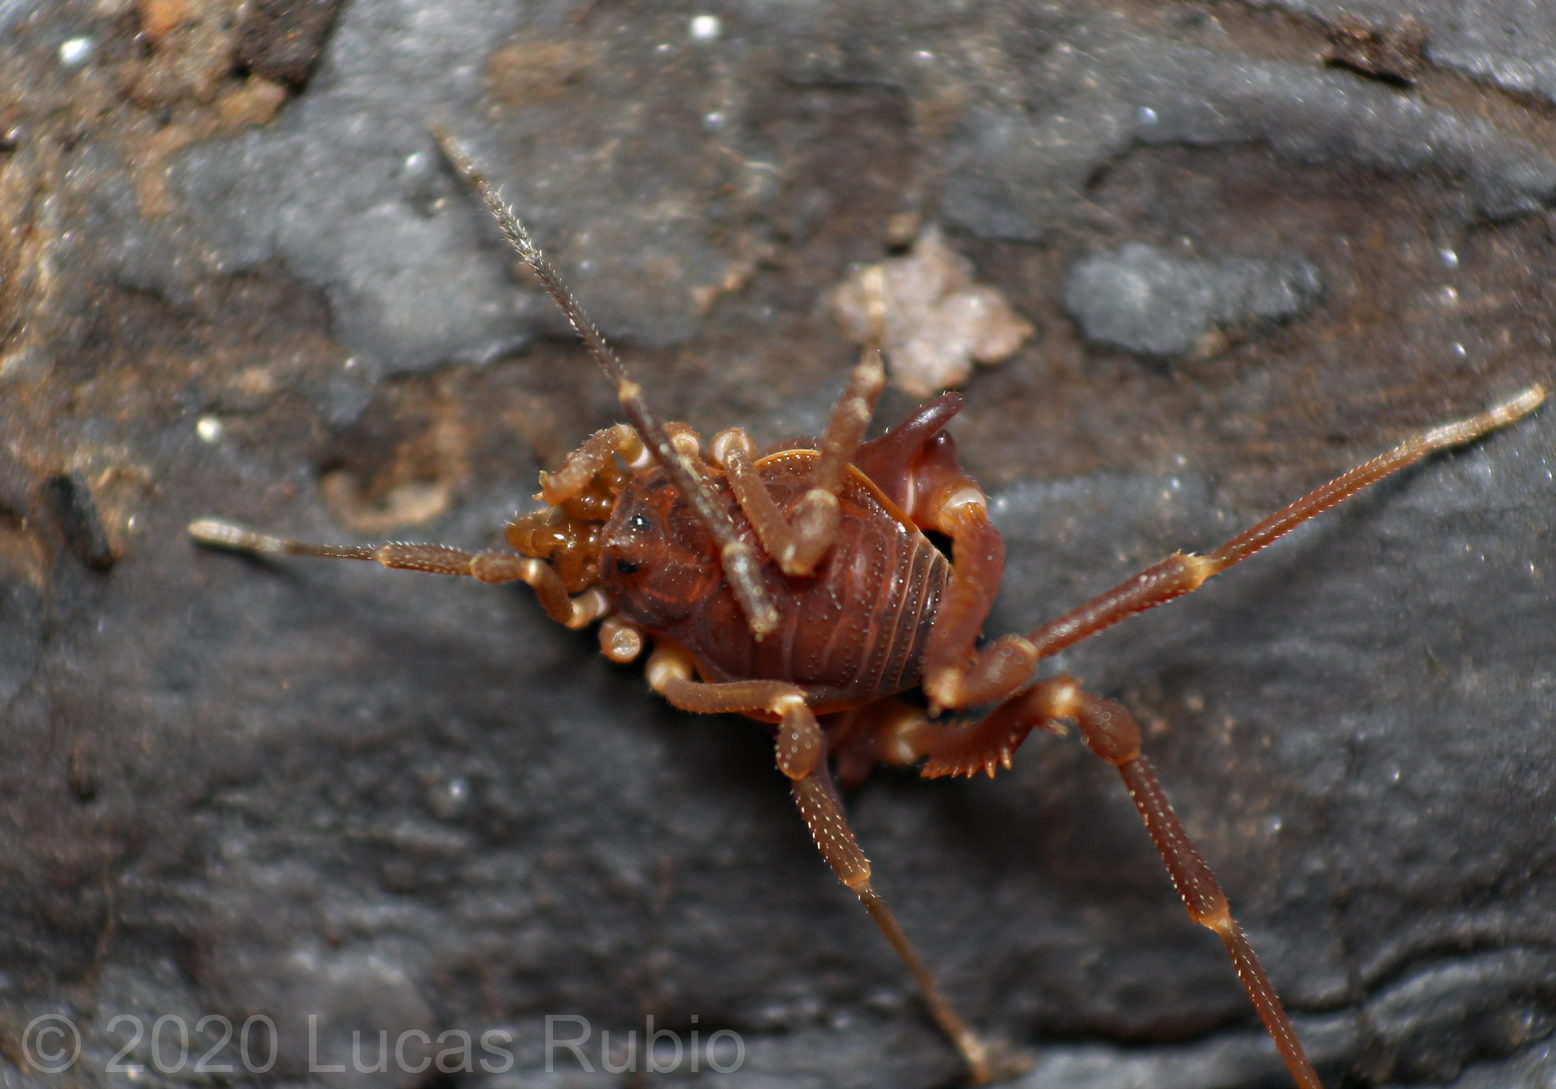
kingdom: Animalia
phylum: Arthropoda
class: Arachnida
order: Opiliones
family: Gonyleptidae
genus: Eusarcus
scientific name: Eusarcus hastatus
